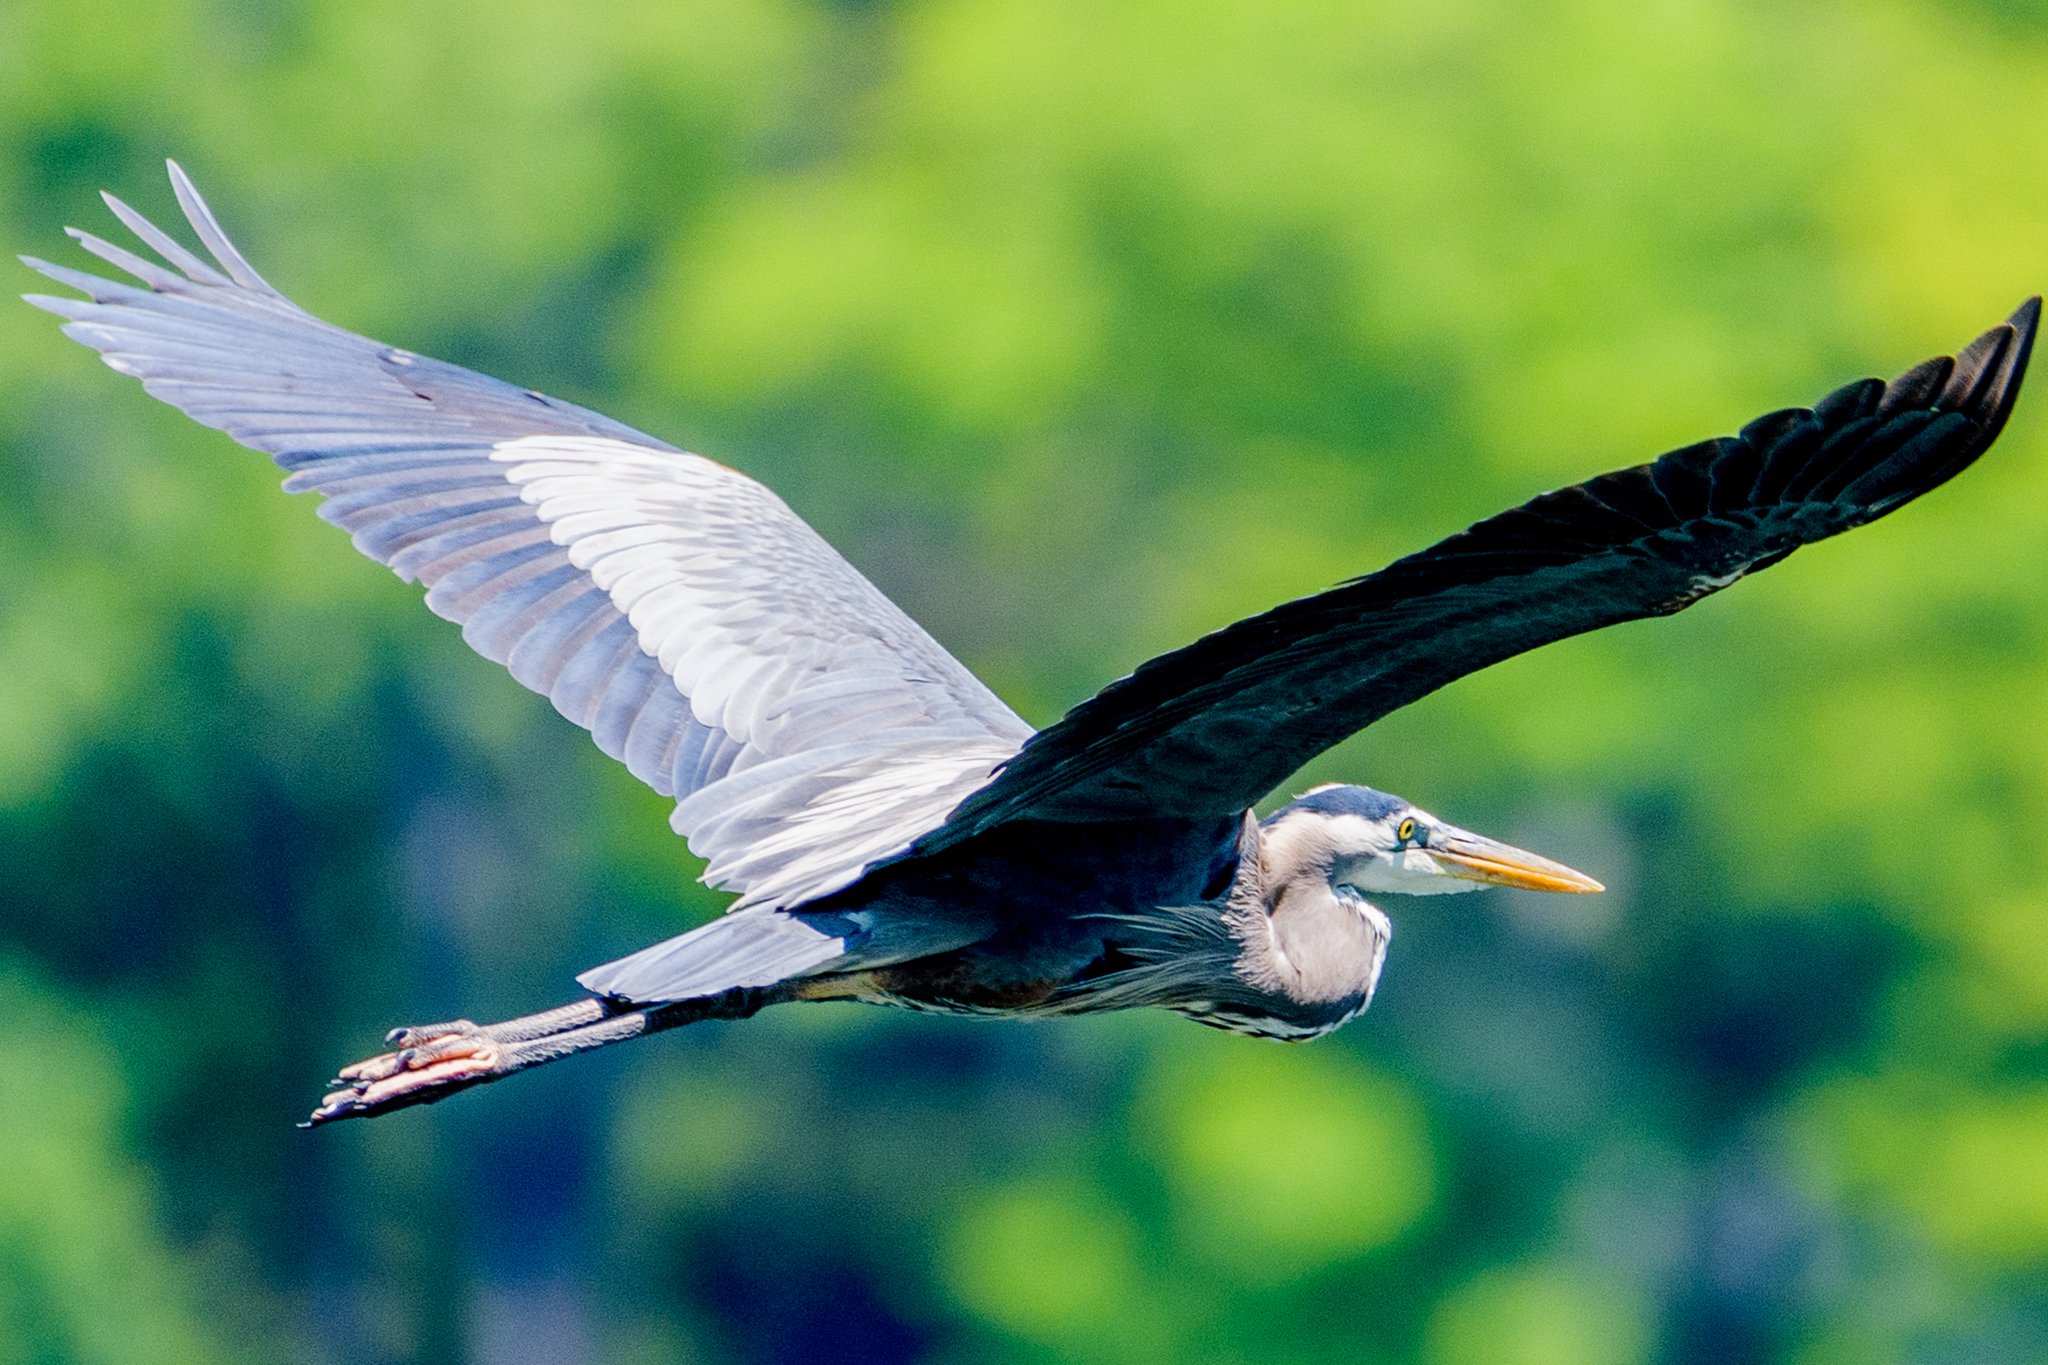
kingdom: Animalia
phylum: Chordata
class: Aves
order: Pelecaniformes
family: Ardeidae
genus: Ardea
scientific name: Ardea herodias
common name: Great blue heron
